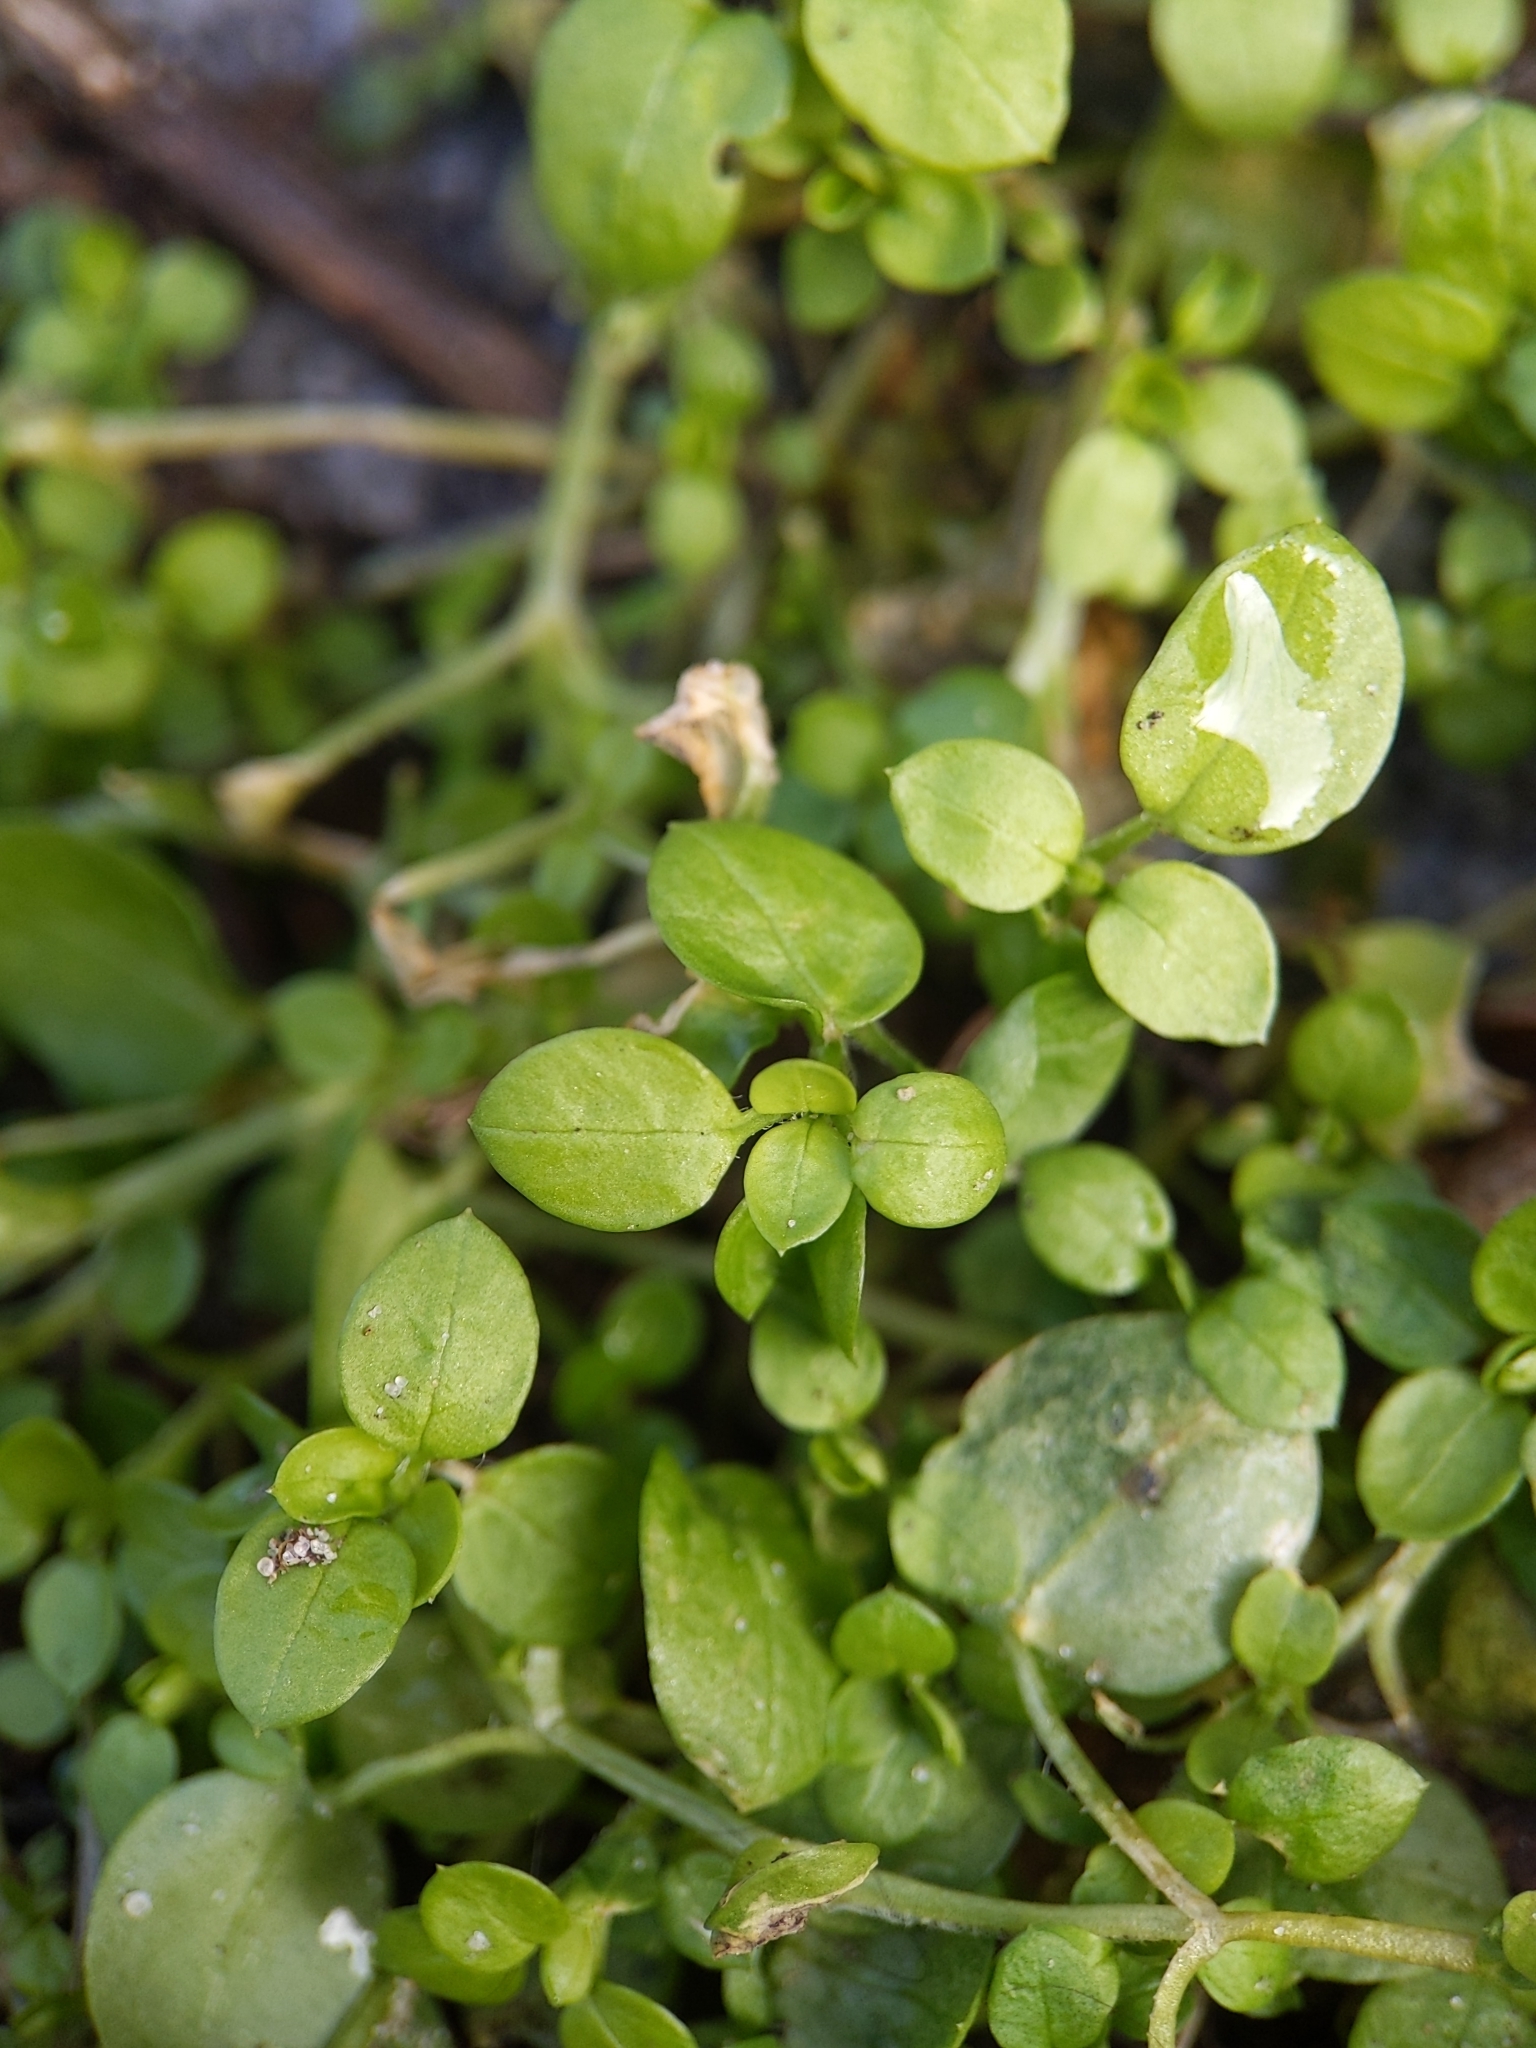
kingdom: Plantae
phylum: Tracheophyta
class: Magnoliopsida
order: Caryophyllales
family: Caryophyllaceae
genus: Stellaria
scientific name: Stellaria media
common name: Common chickweed
